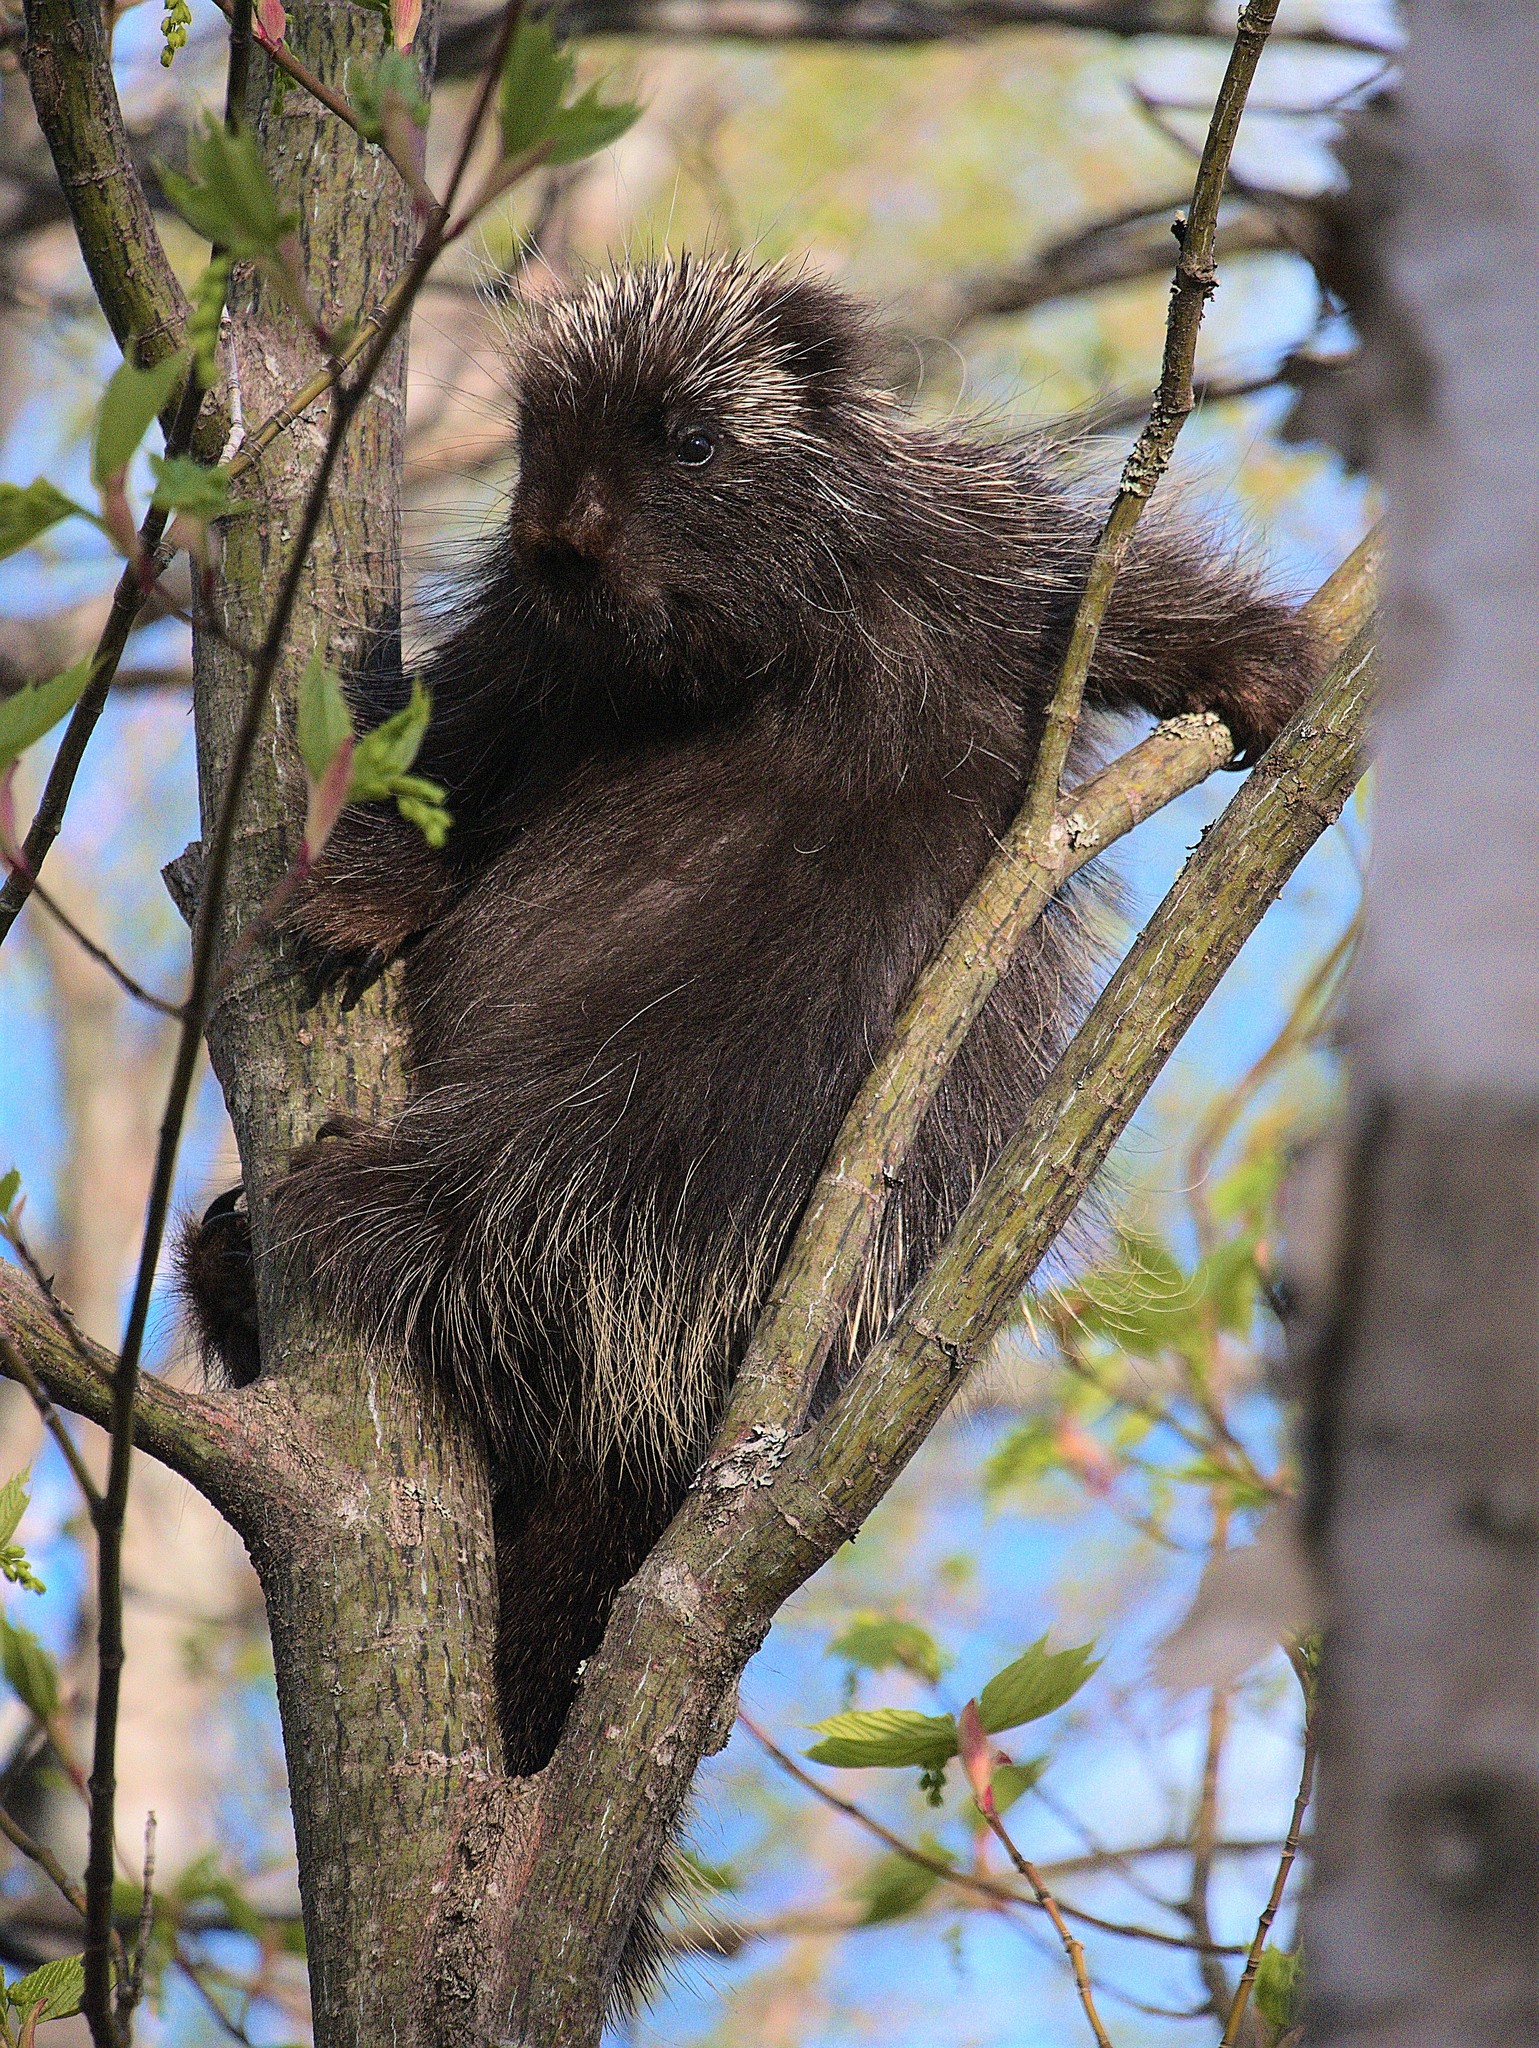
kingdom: Animalia
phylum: Chordata
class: Mammalia
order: Rodentia
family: Erethizontidae
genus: Erethizon
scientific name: Erethizon dorsatus
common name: North american porcupine
